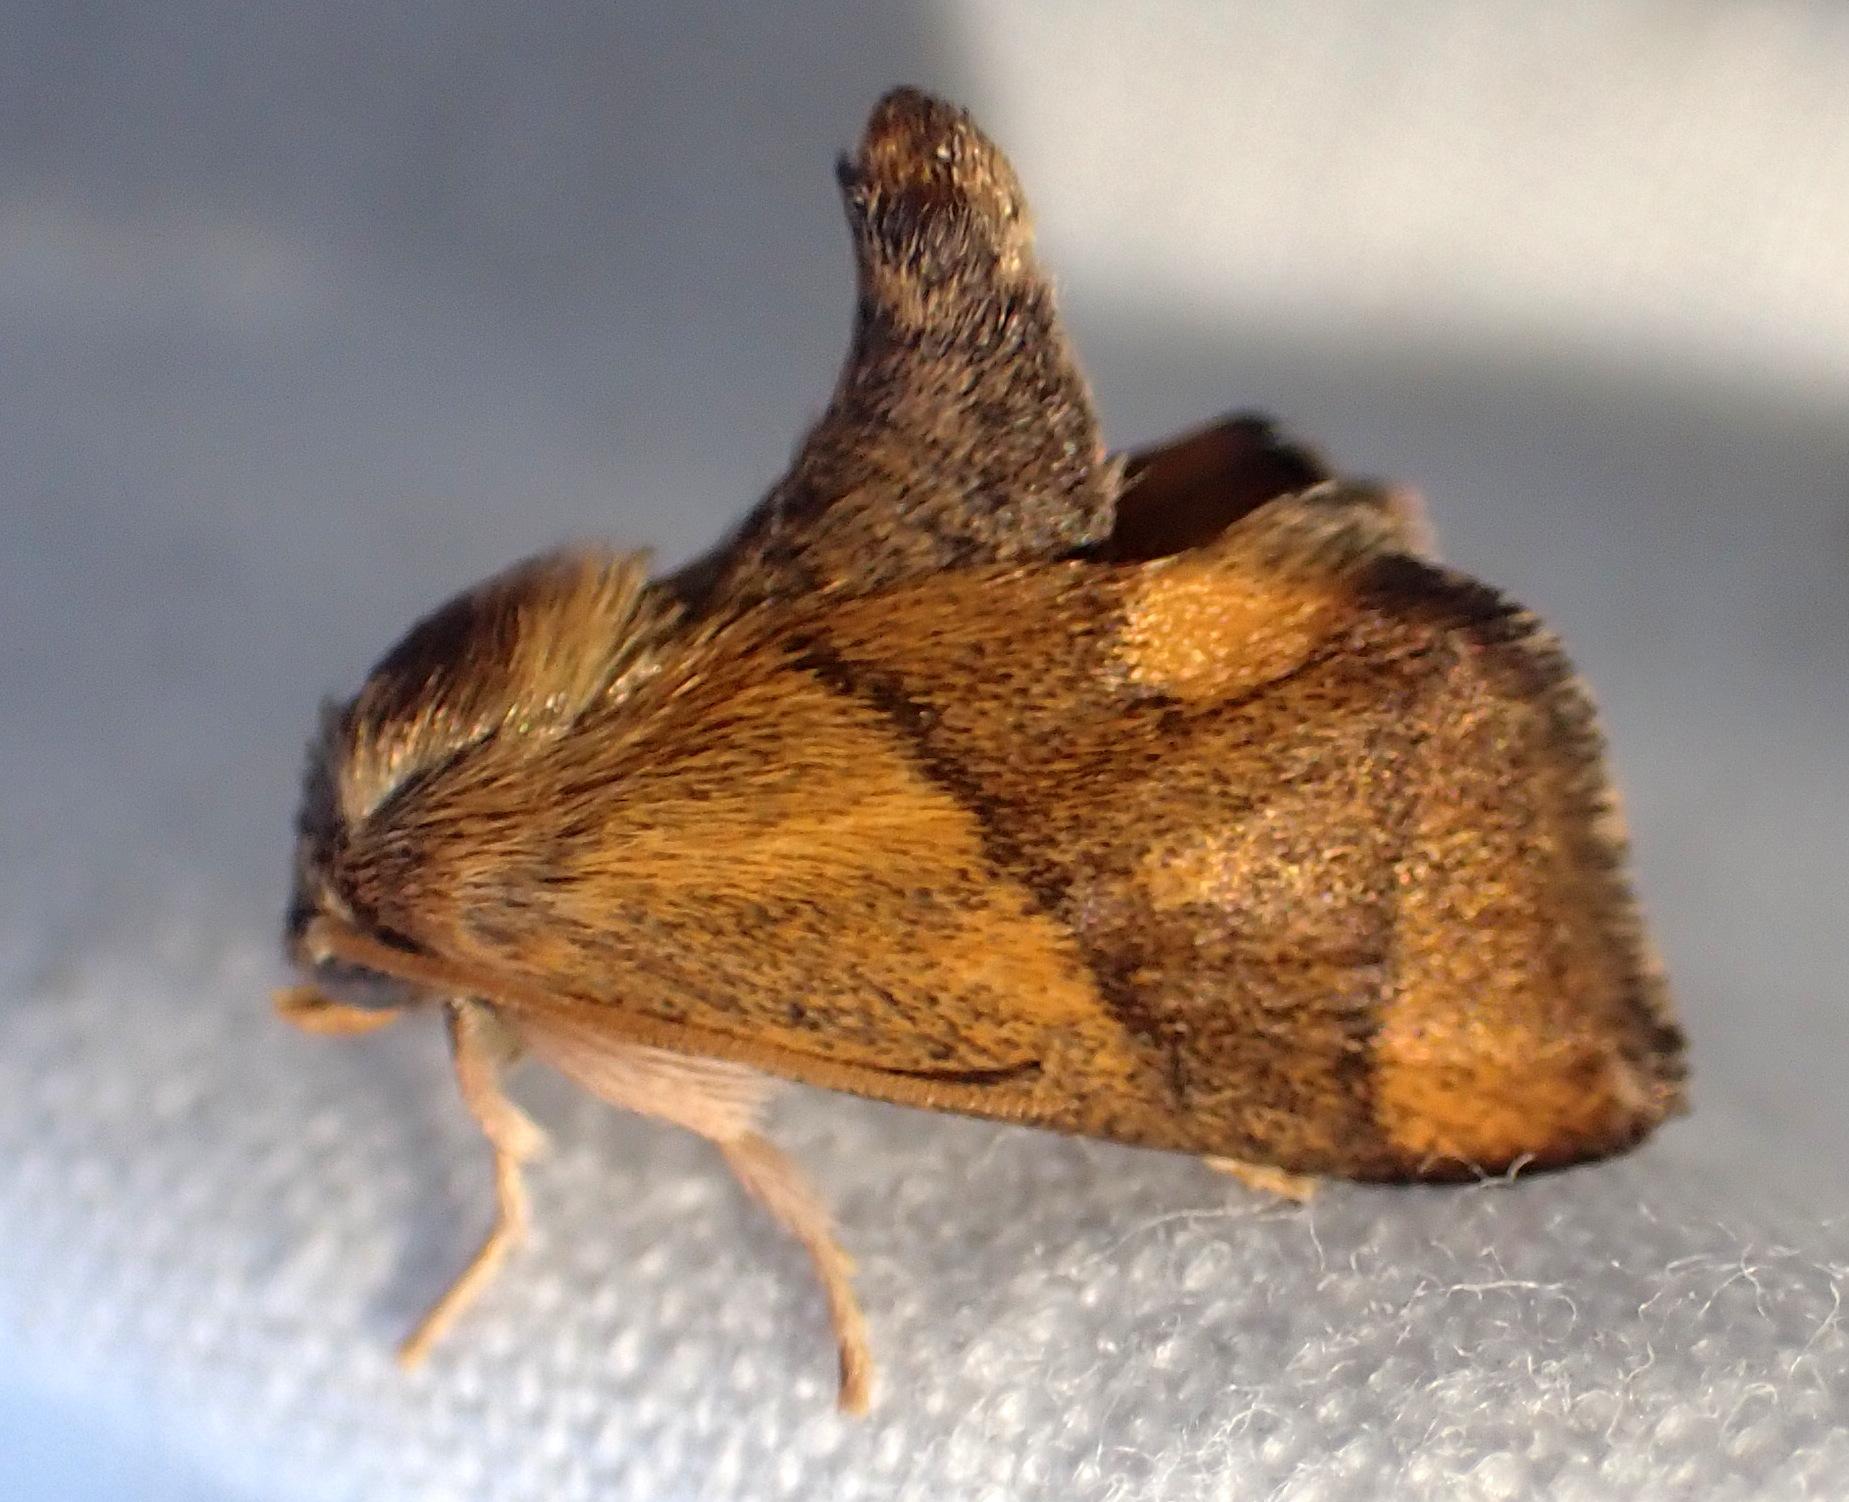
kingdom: Animalia
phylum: Arthropoda
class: Insecta
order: Lepidoptera
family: Limacodidae
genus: Apoda
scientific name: Apoda limacodes
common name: Festoon
